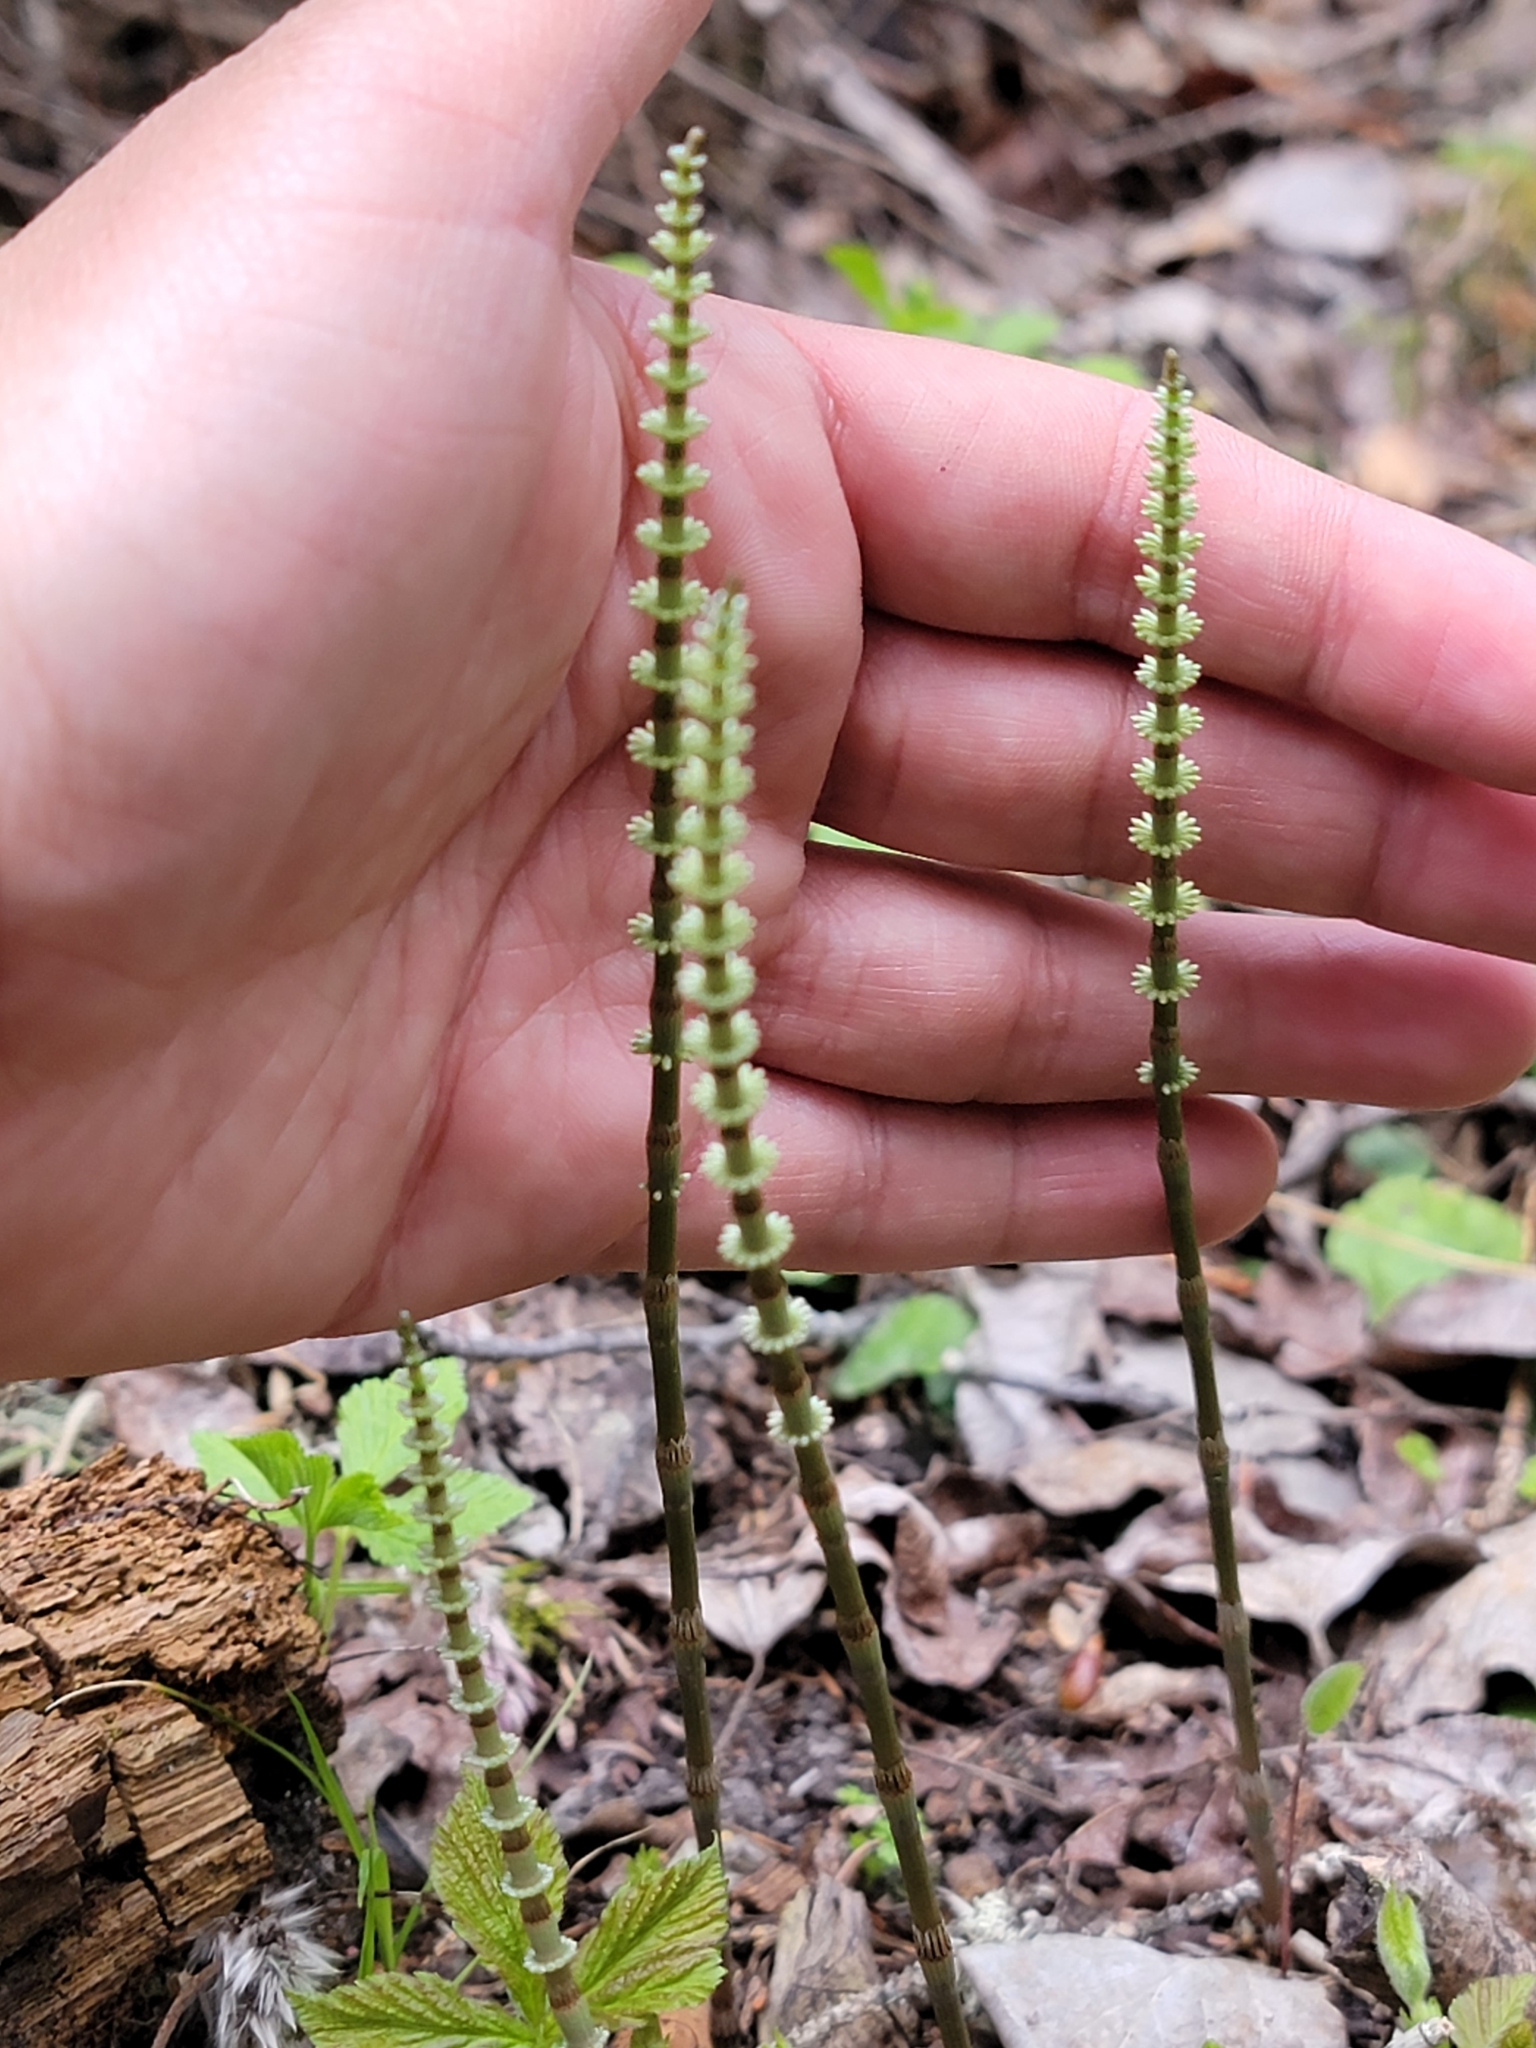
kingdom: Plantae
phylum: Tracheophyta
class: Polypodiopsida
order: Equisetales
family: Equisetaceae
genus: Equisetum
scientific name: Equisetum pratense
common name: Meadow horsetail
